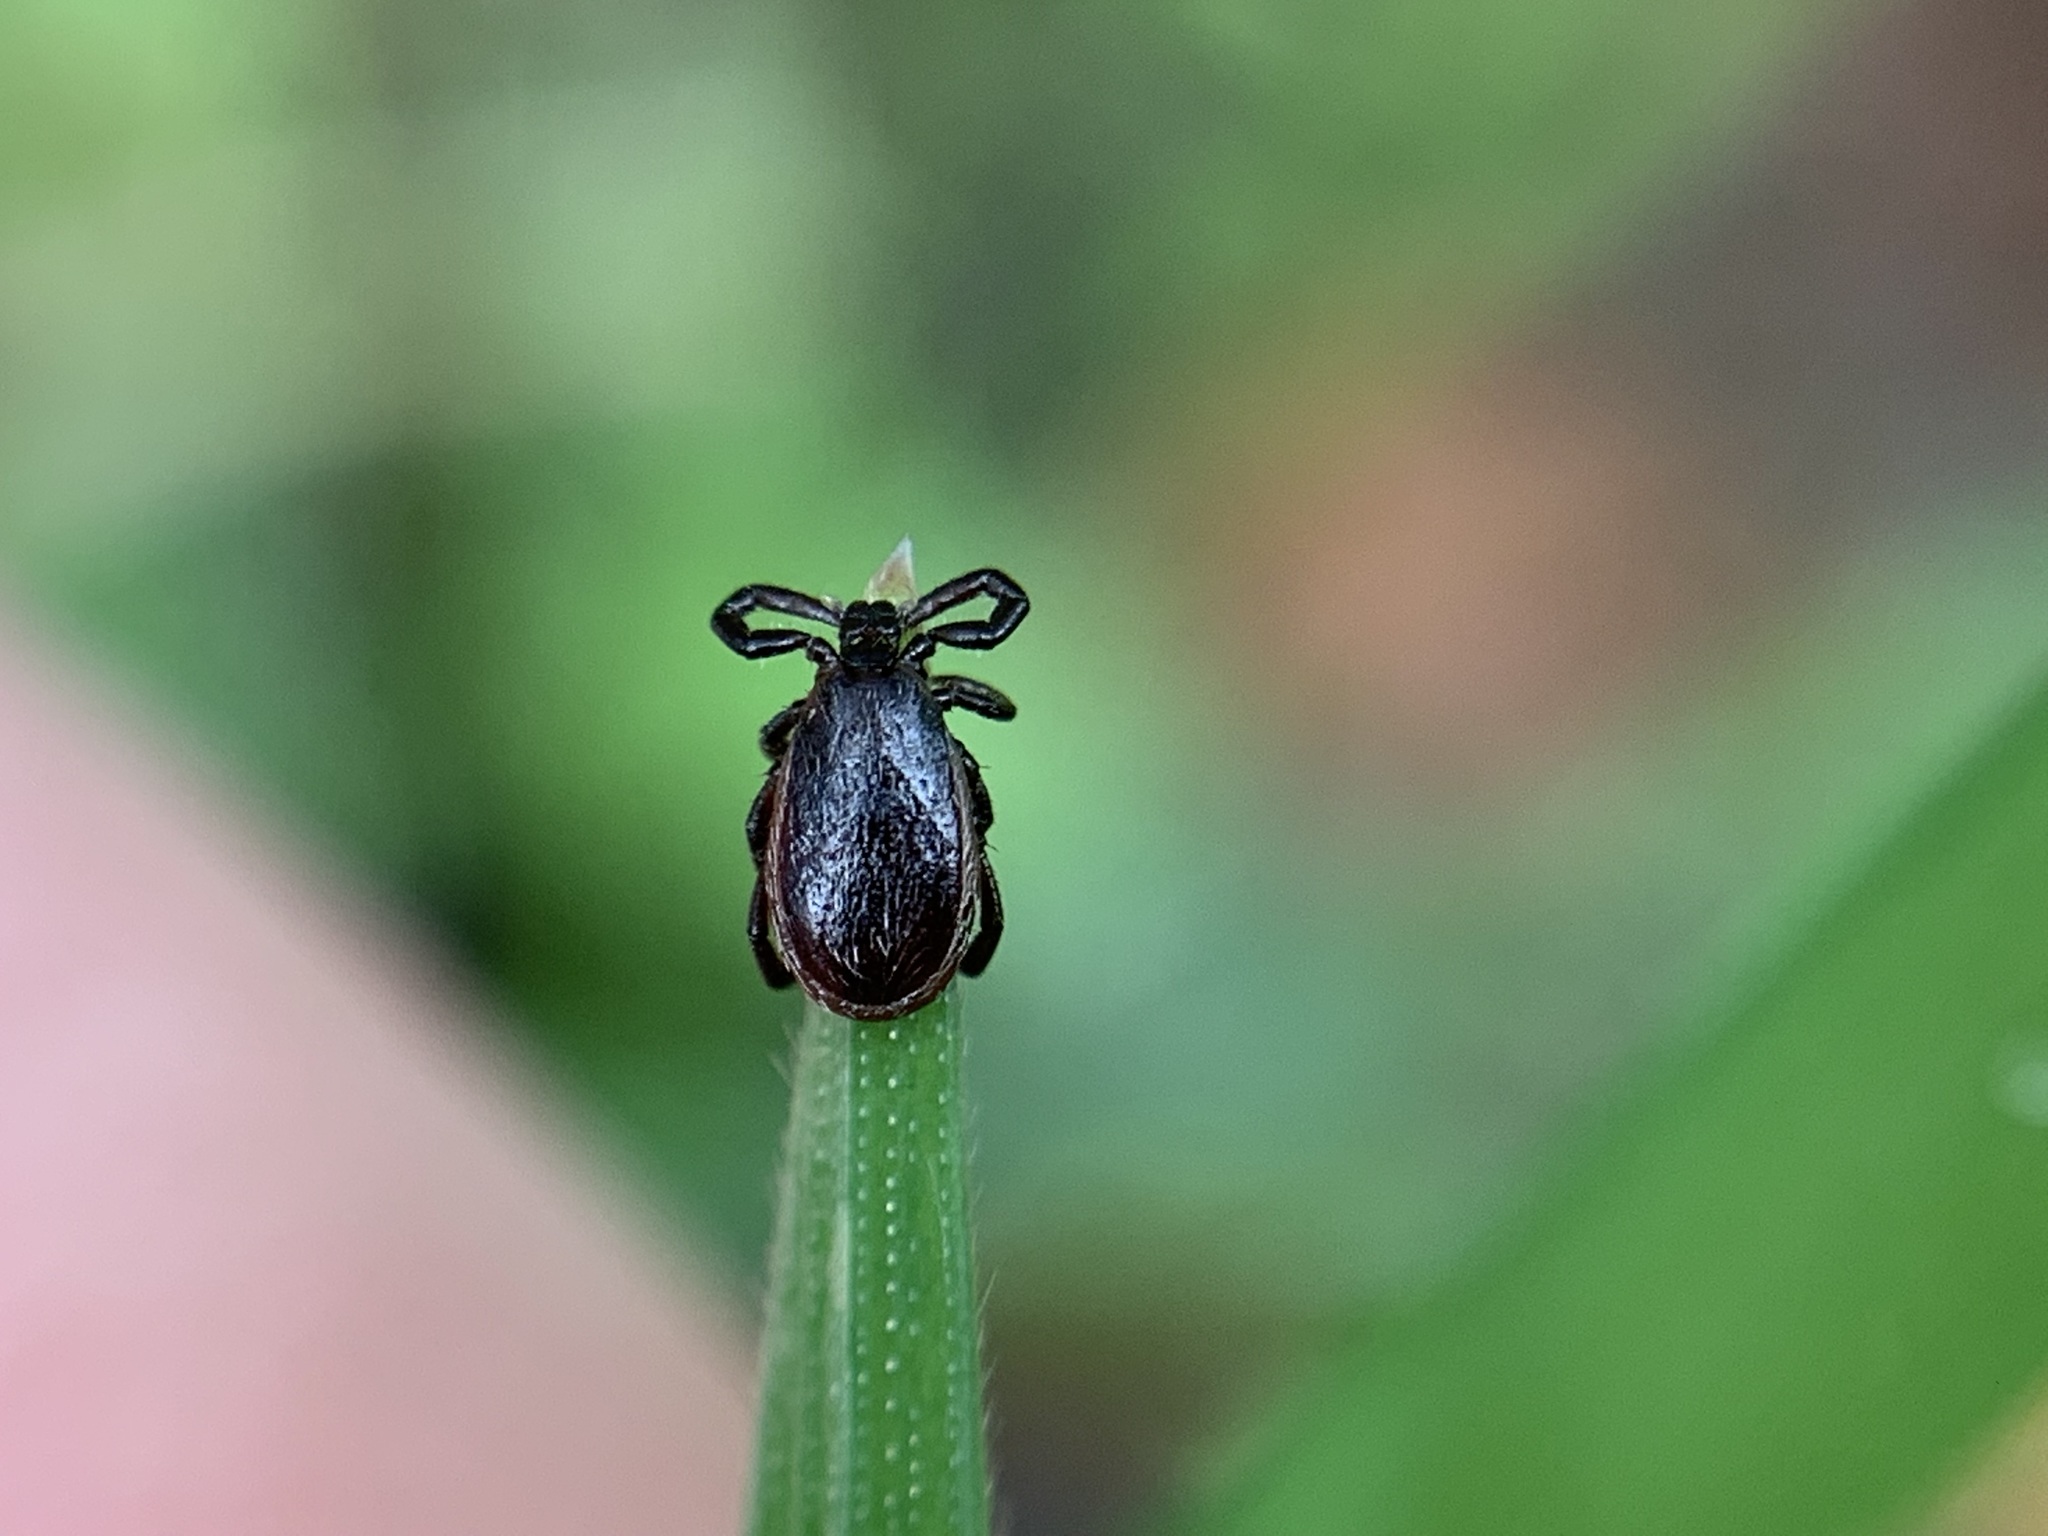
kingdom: Animalia
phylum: Arthropoda
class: Arachnida
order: Ixodida
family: Ixodidae
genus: Ixodes
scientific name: Ixodes pacificus
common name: California black-legged tick
